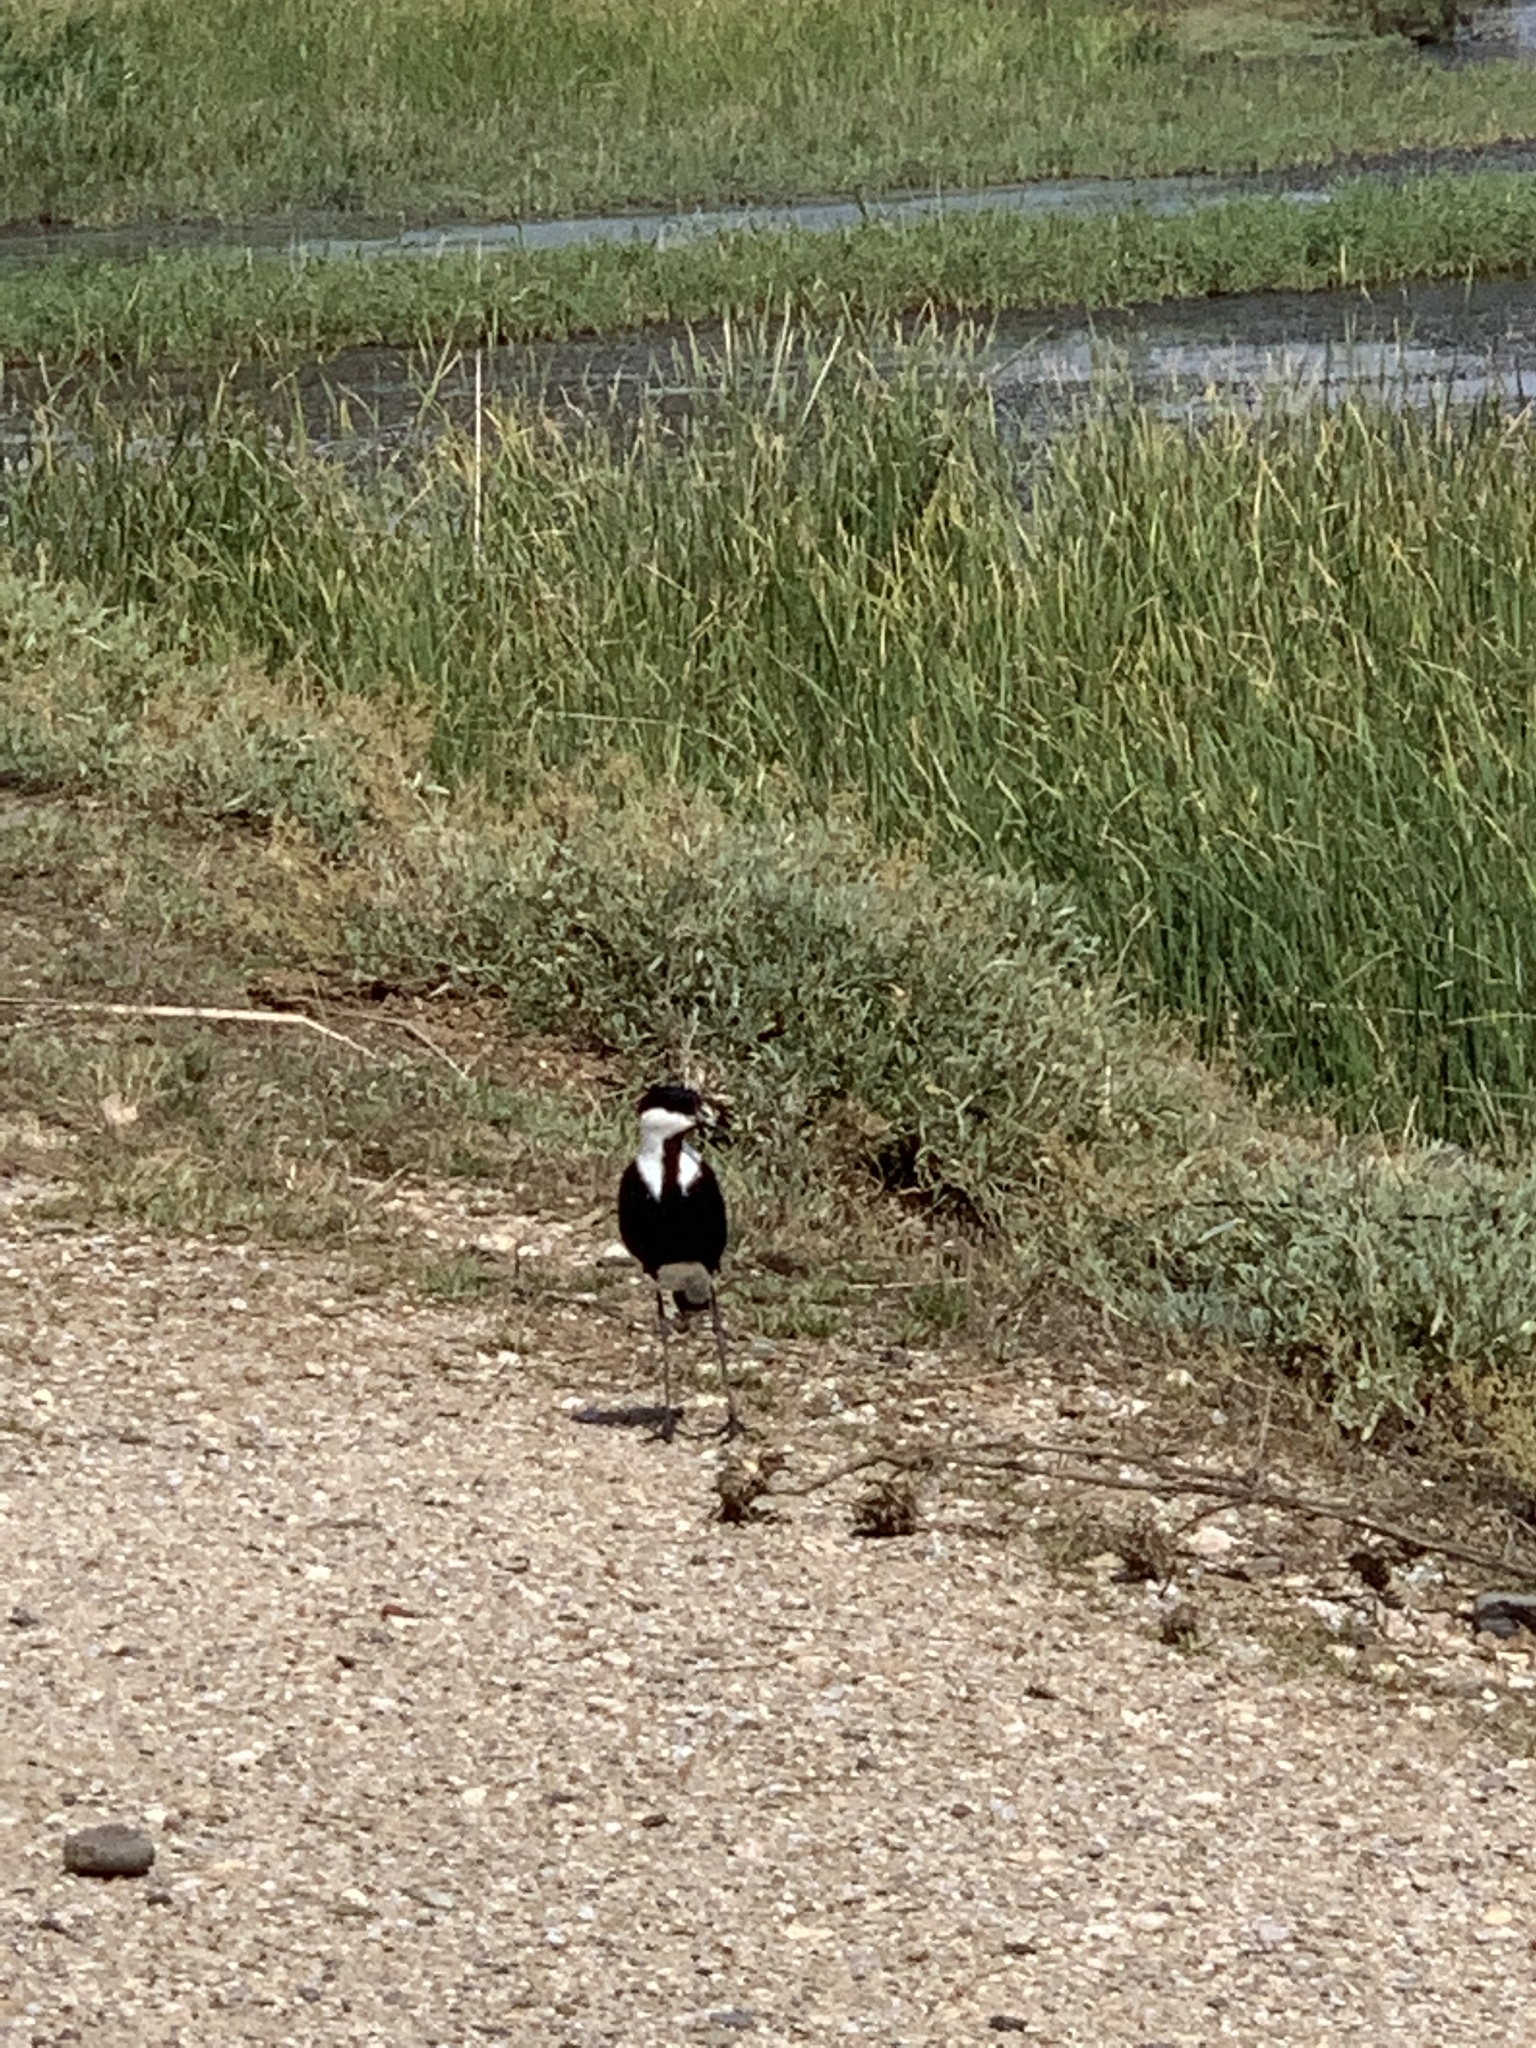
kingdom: Animalia
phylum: Chordata
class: Aves
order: Charadriiformes
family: Charadriidae
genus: Vanellus
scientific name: Vanellus spinosus
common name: Spur-winged lapwing
